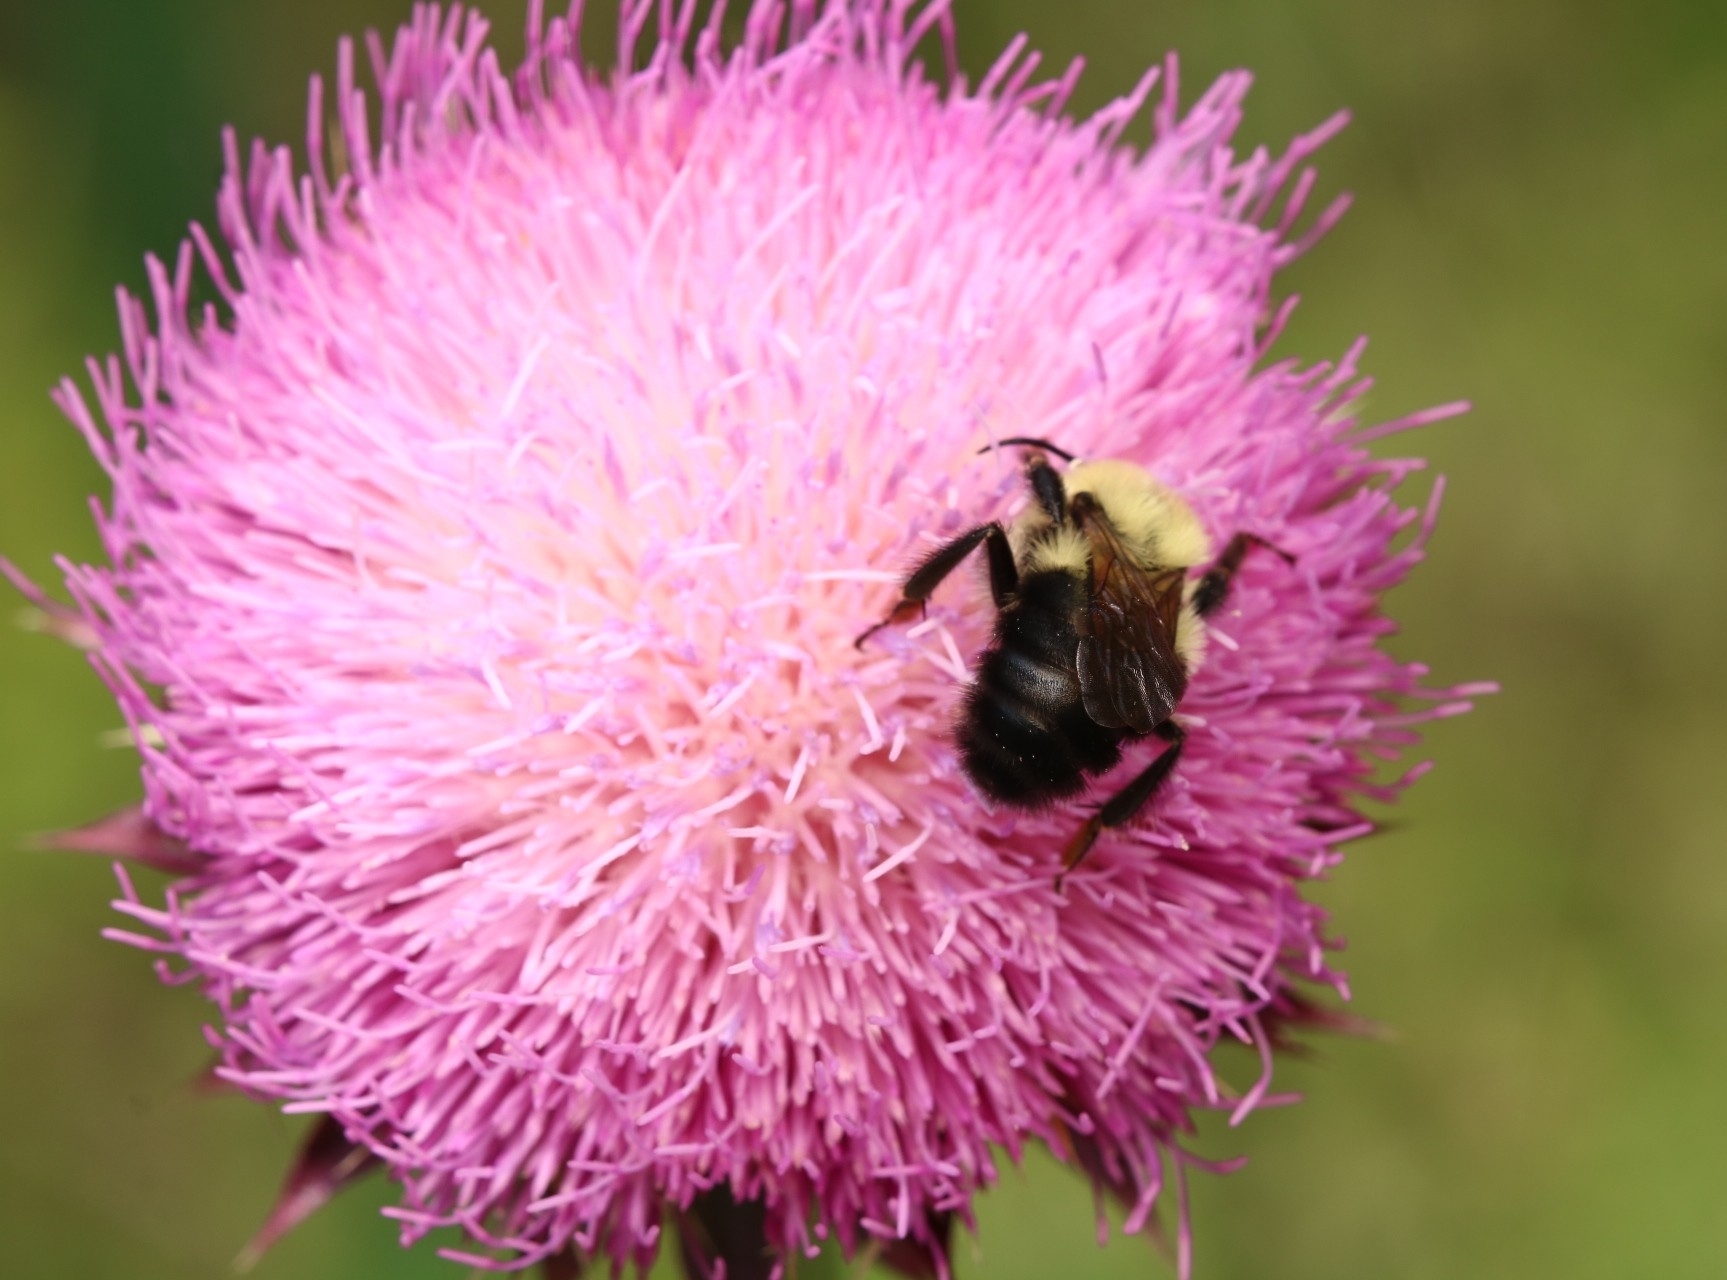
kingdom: Animalia
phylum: Arthropoda
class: Insecta
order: Hymenoptera
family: Apidae
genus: Bombus
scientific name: Bombus bimaculatus
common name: Two-spotted bumble bee
